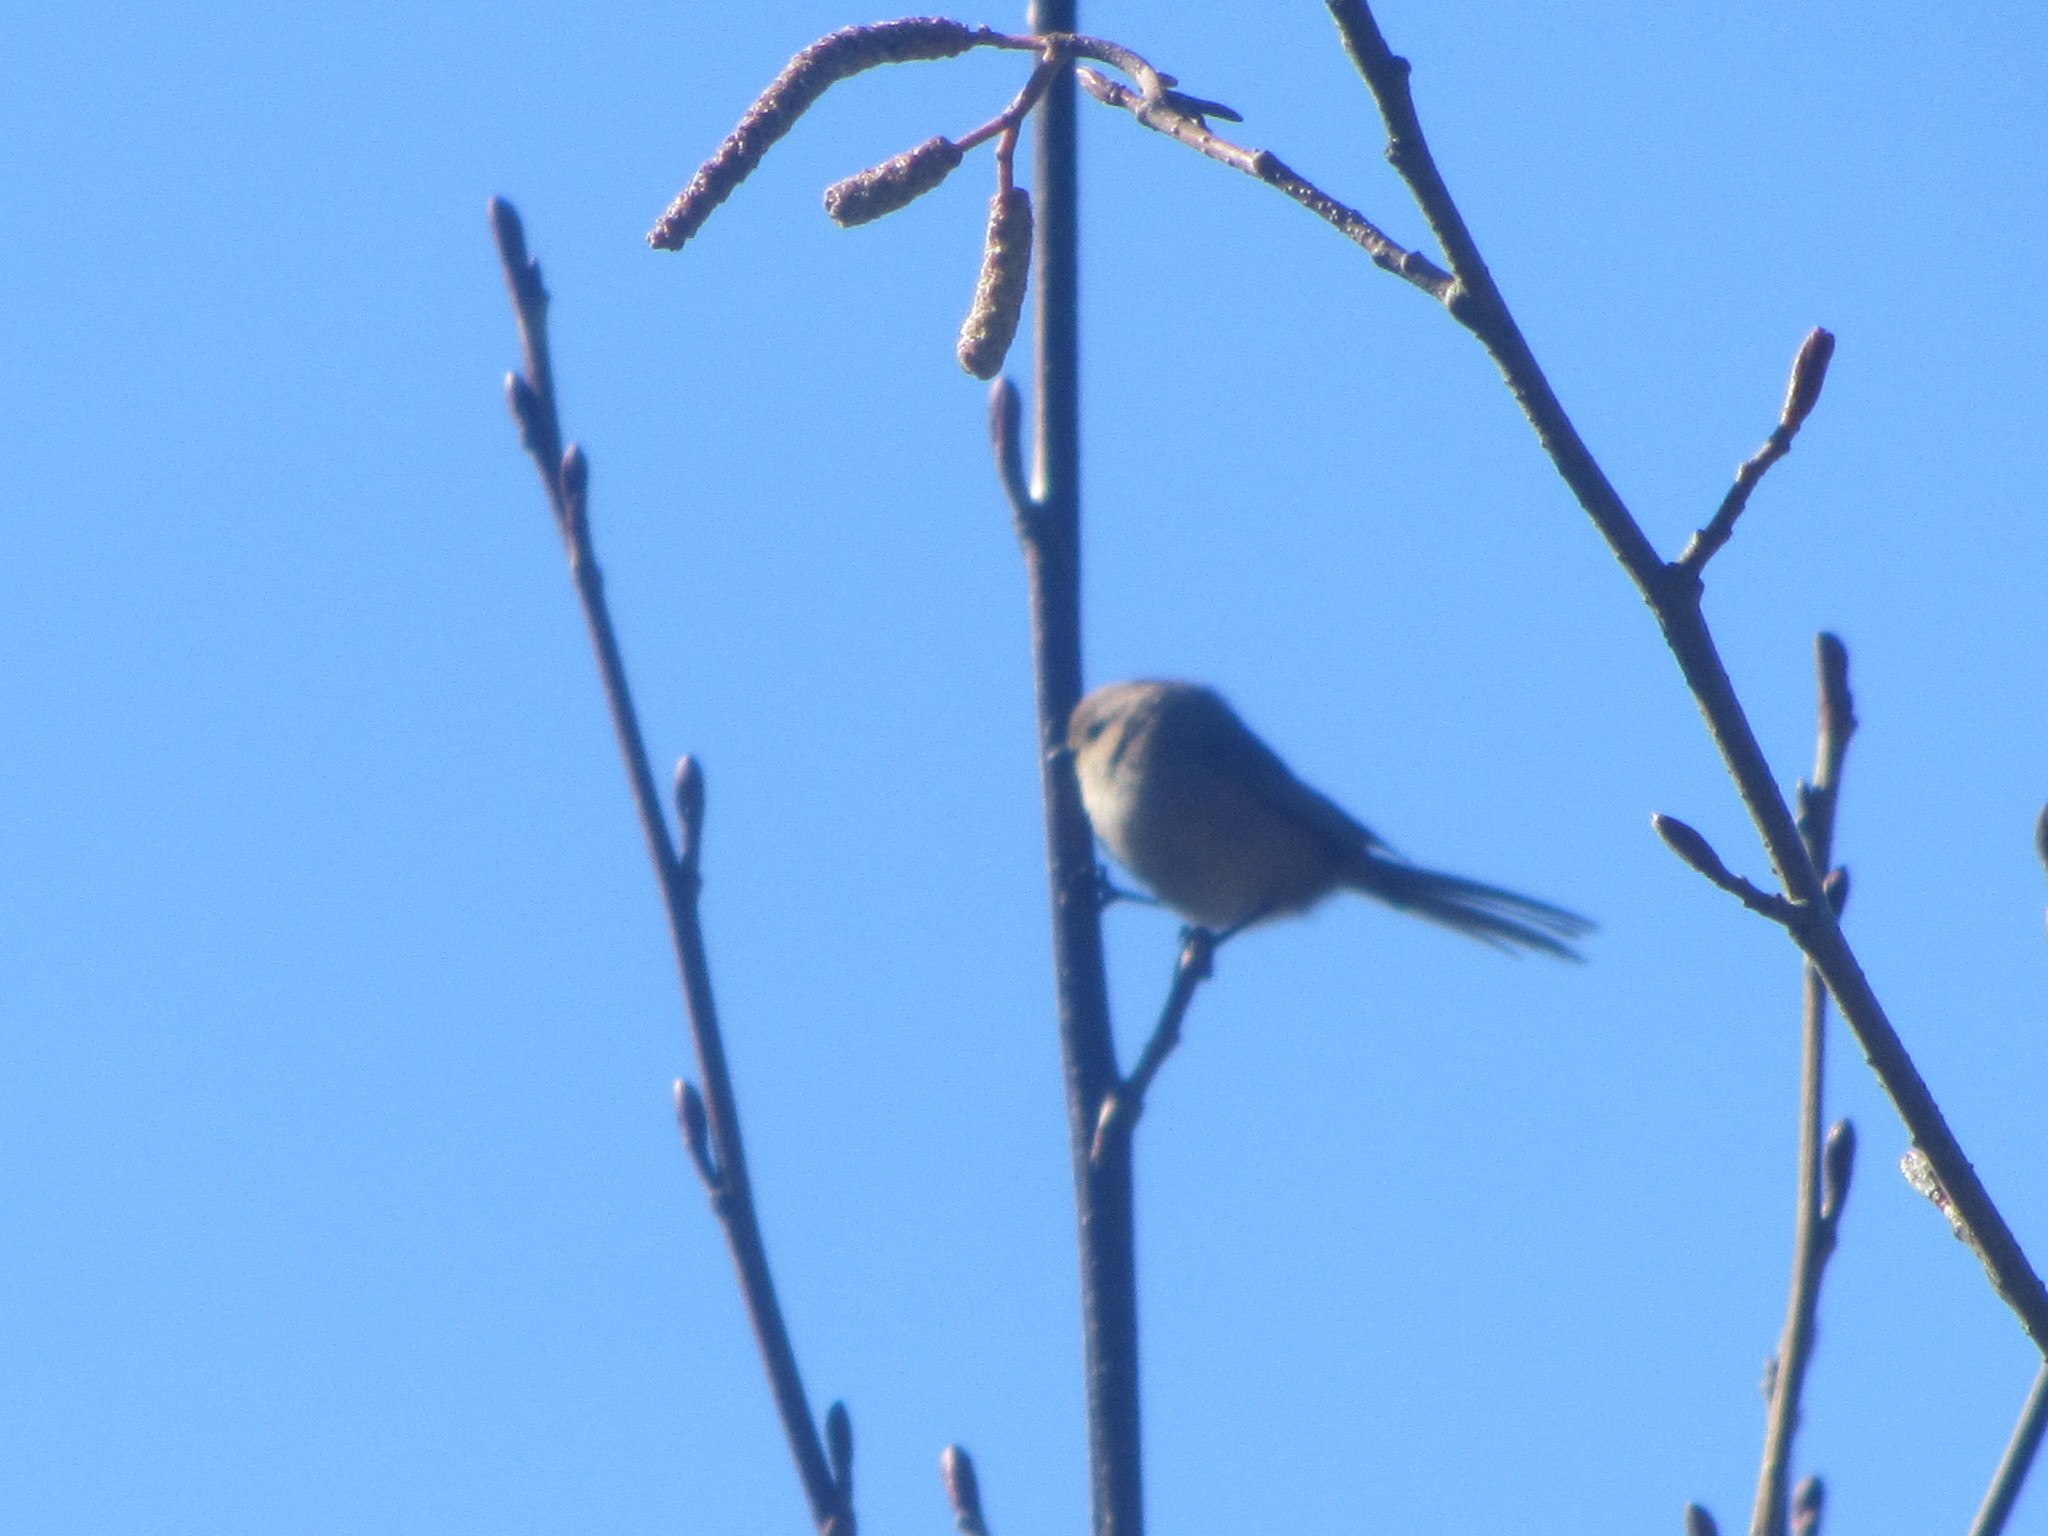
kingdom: Animalia
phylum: Chordata
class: Aves
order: Passeriformes
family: Aegithalidae
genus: Psaltriparus
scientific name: Psaltriparus minimus
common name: American bushtit
